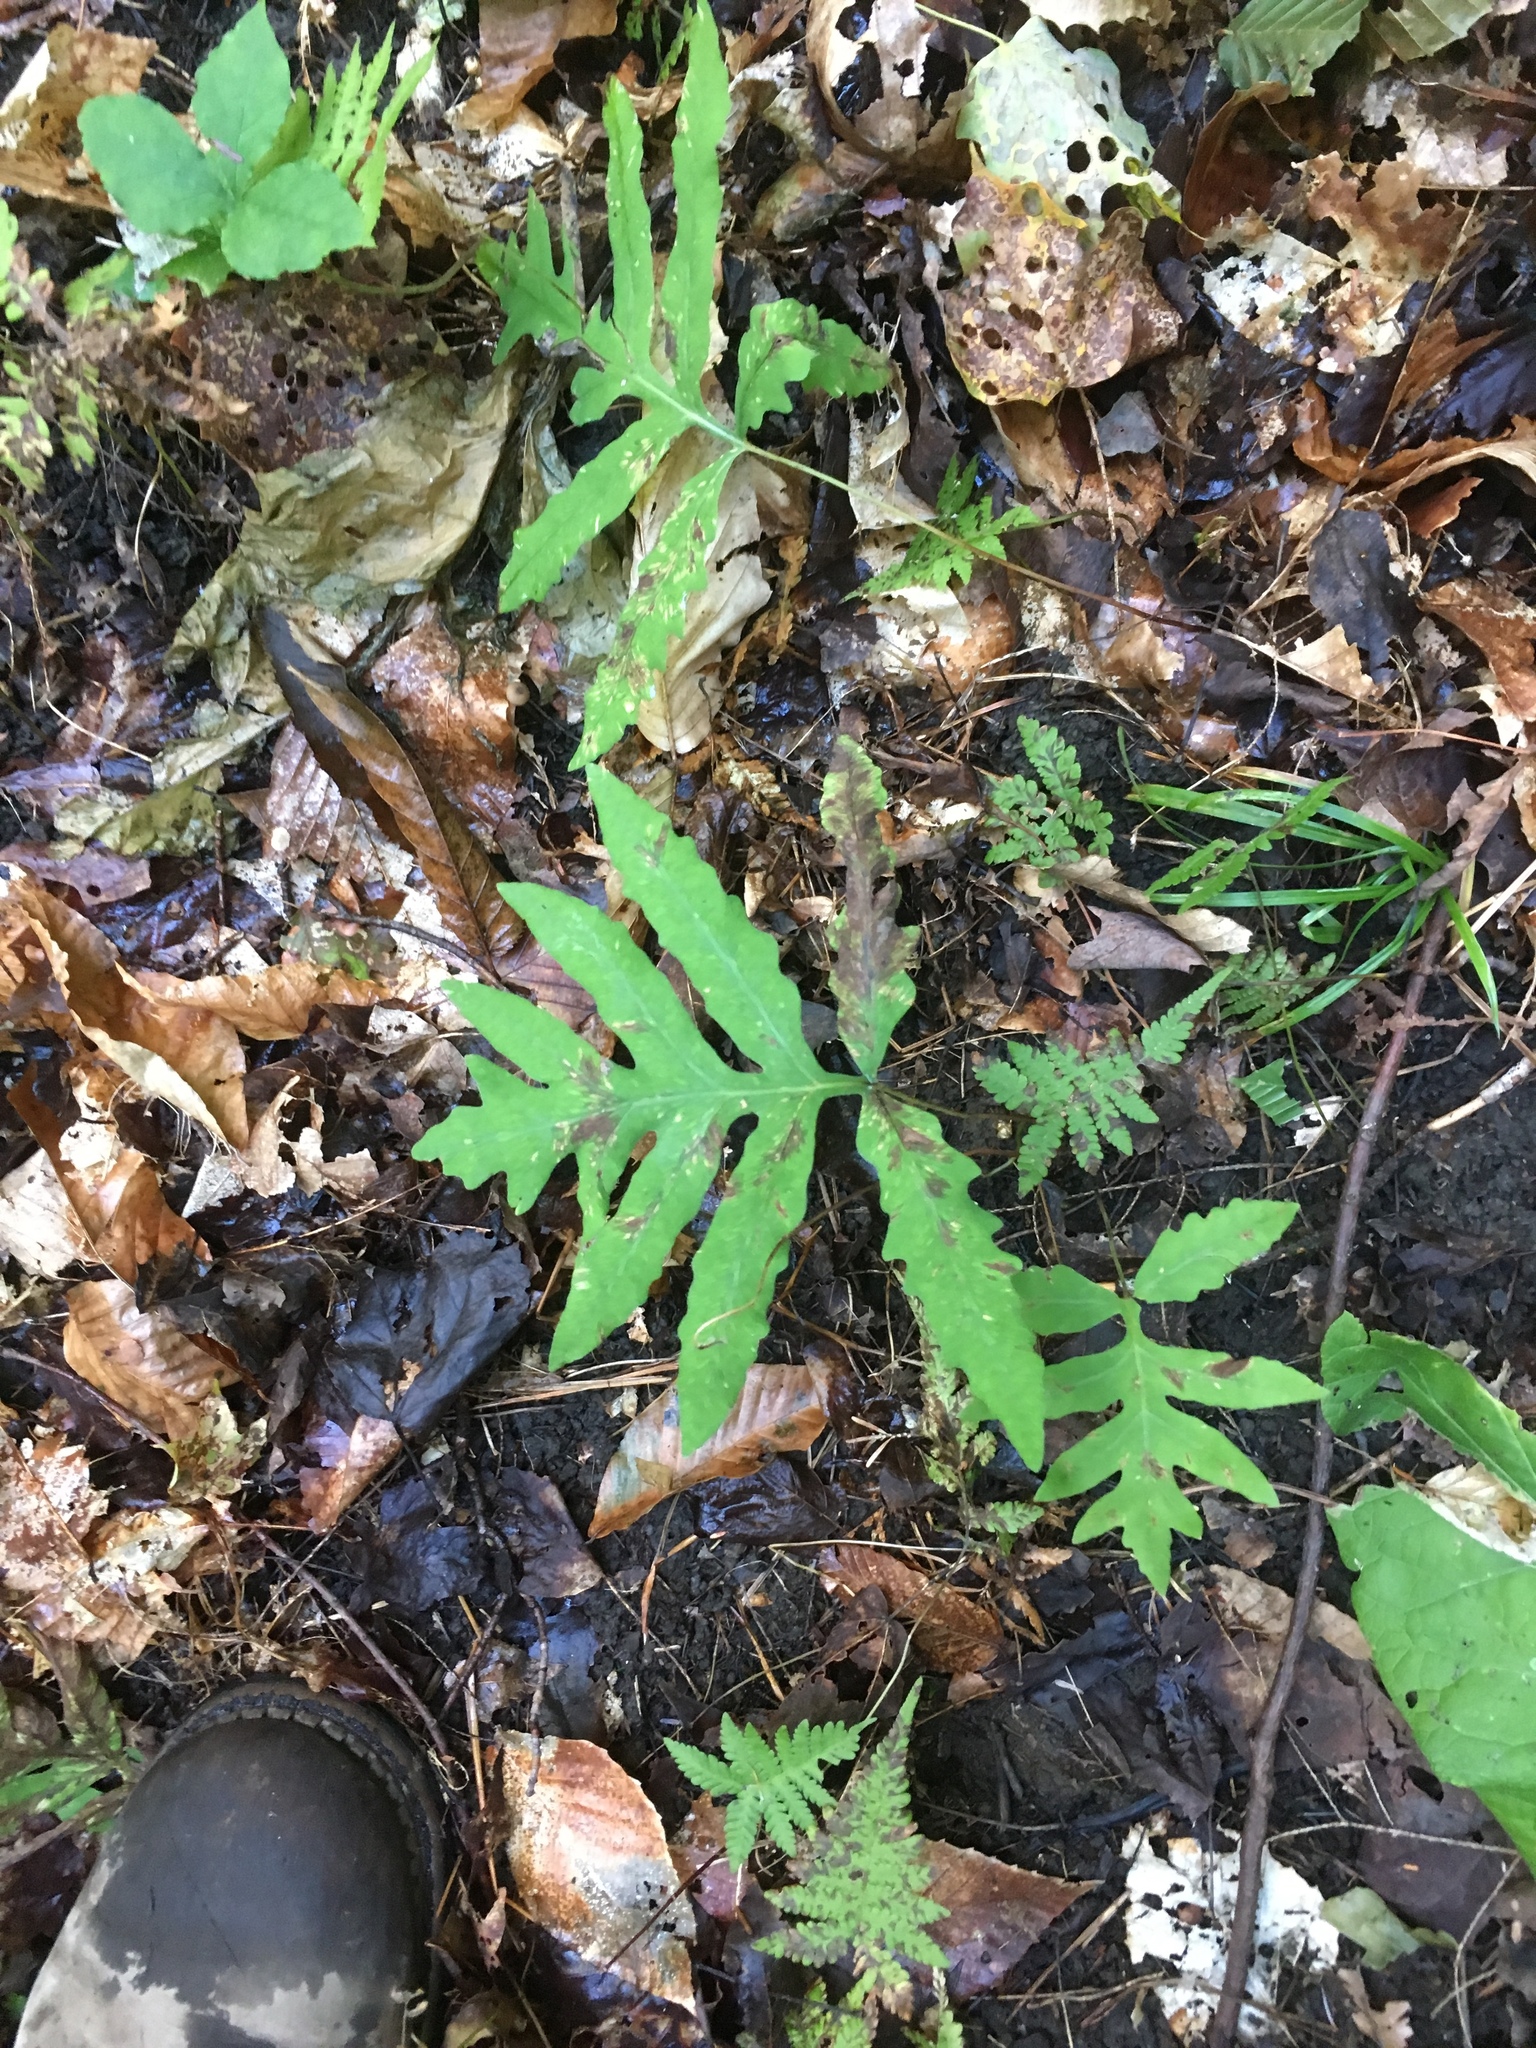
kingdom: Plantae
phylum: Tracheophyta
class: Polypodiopsida
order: Polypodiales
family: Onocleaceae
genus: Onoclea
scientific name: Onoclea sensibilis
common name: Sensitive fern
